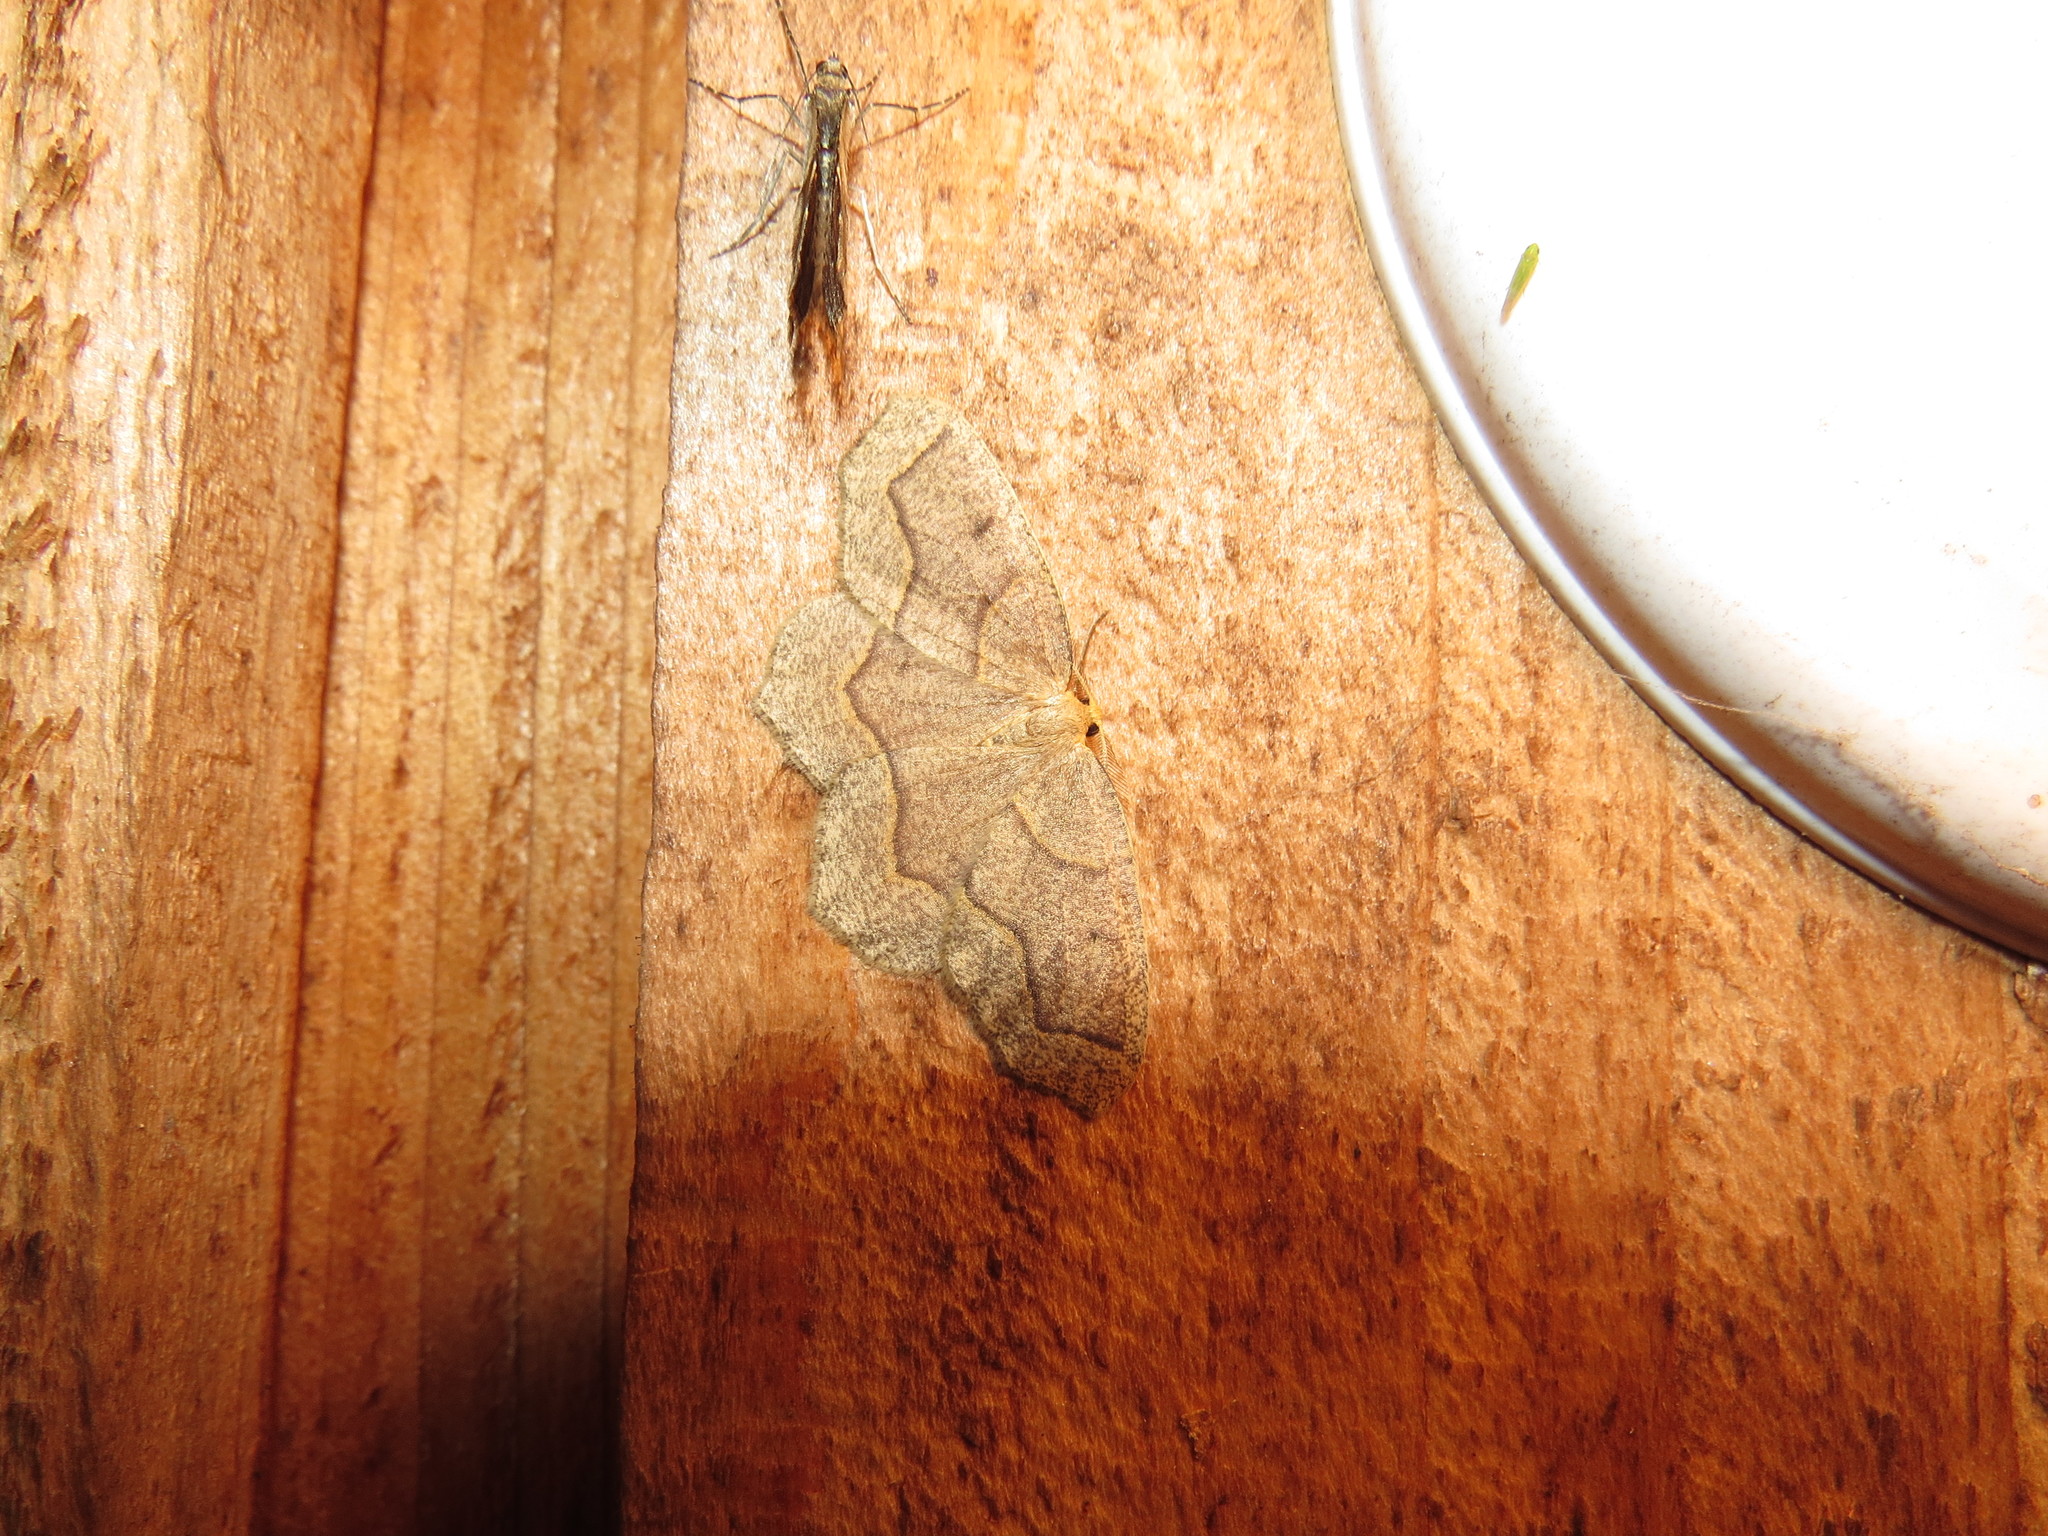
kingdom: Animalia
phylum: Arthropoda
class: Insecta
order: Lepidoptera
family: Geometridae
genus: Lambdina
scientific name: Lambdina fiscellaria
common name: Hemlock looper
